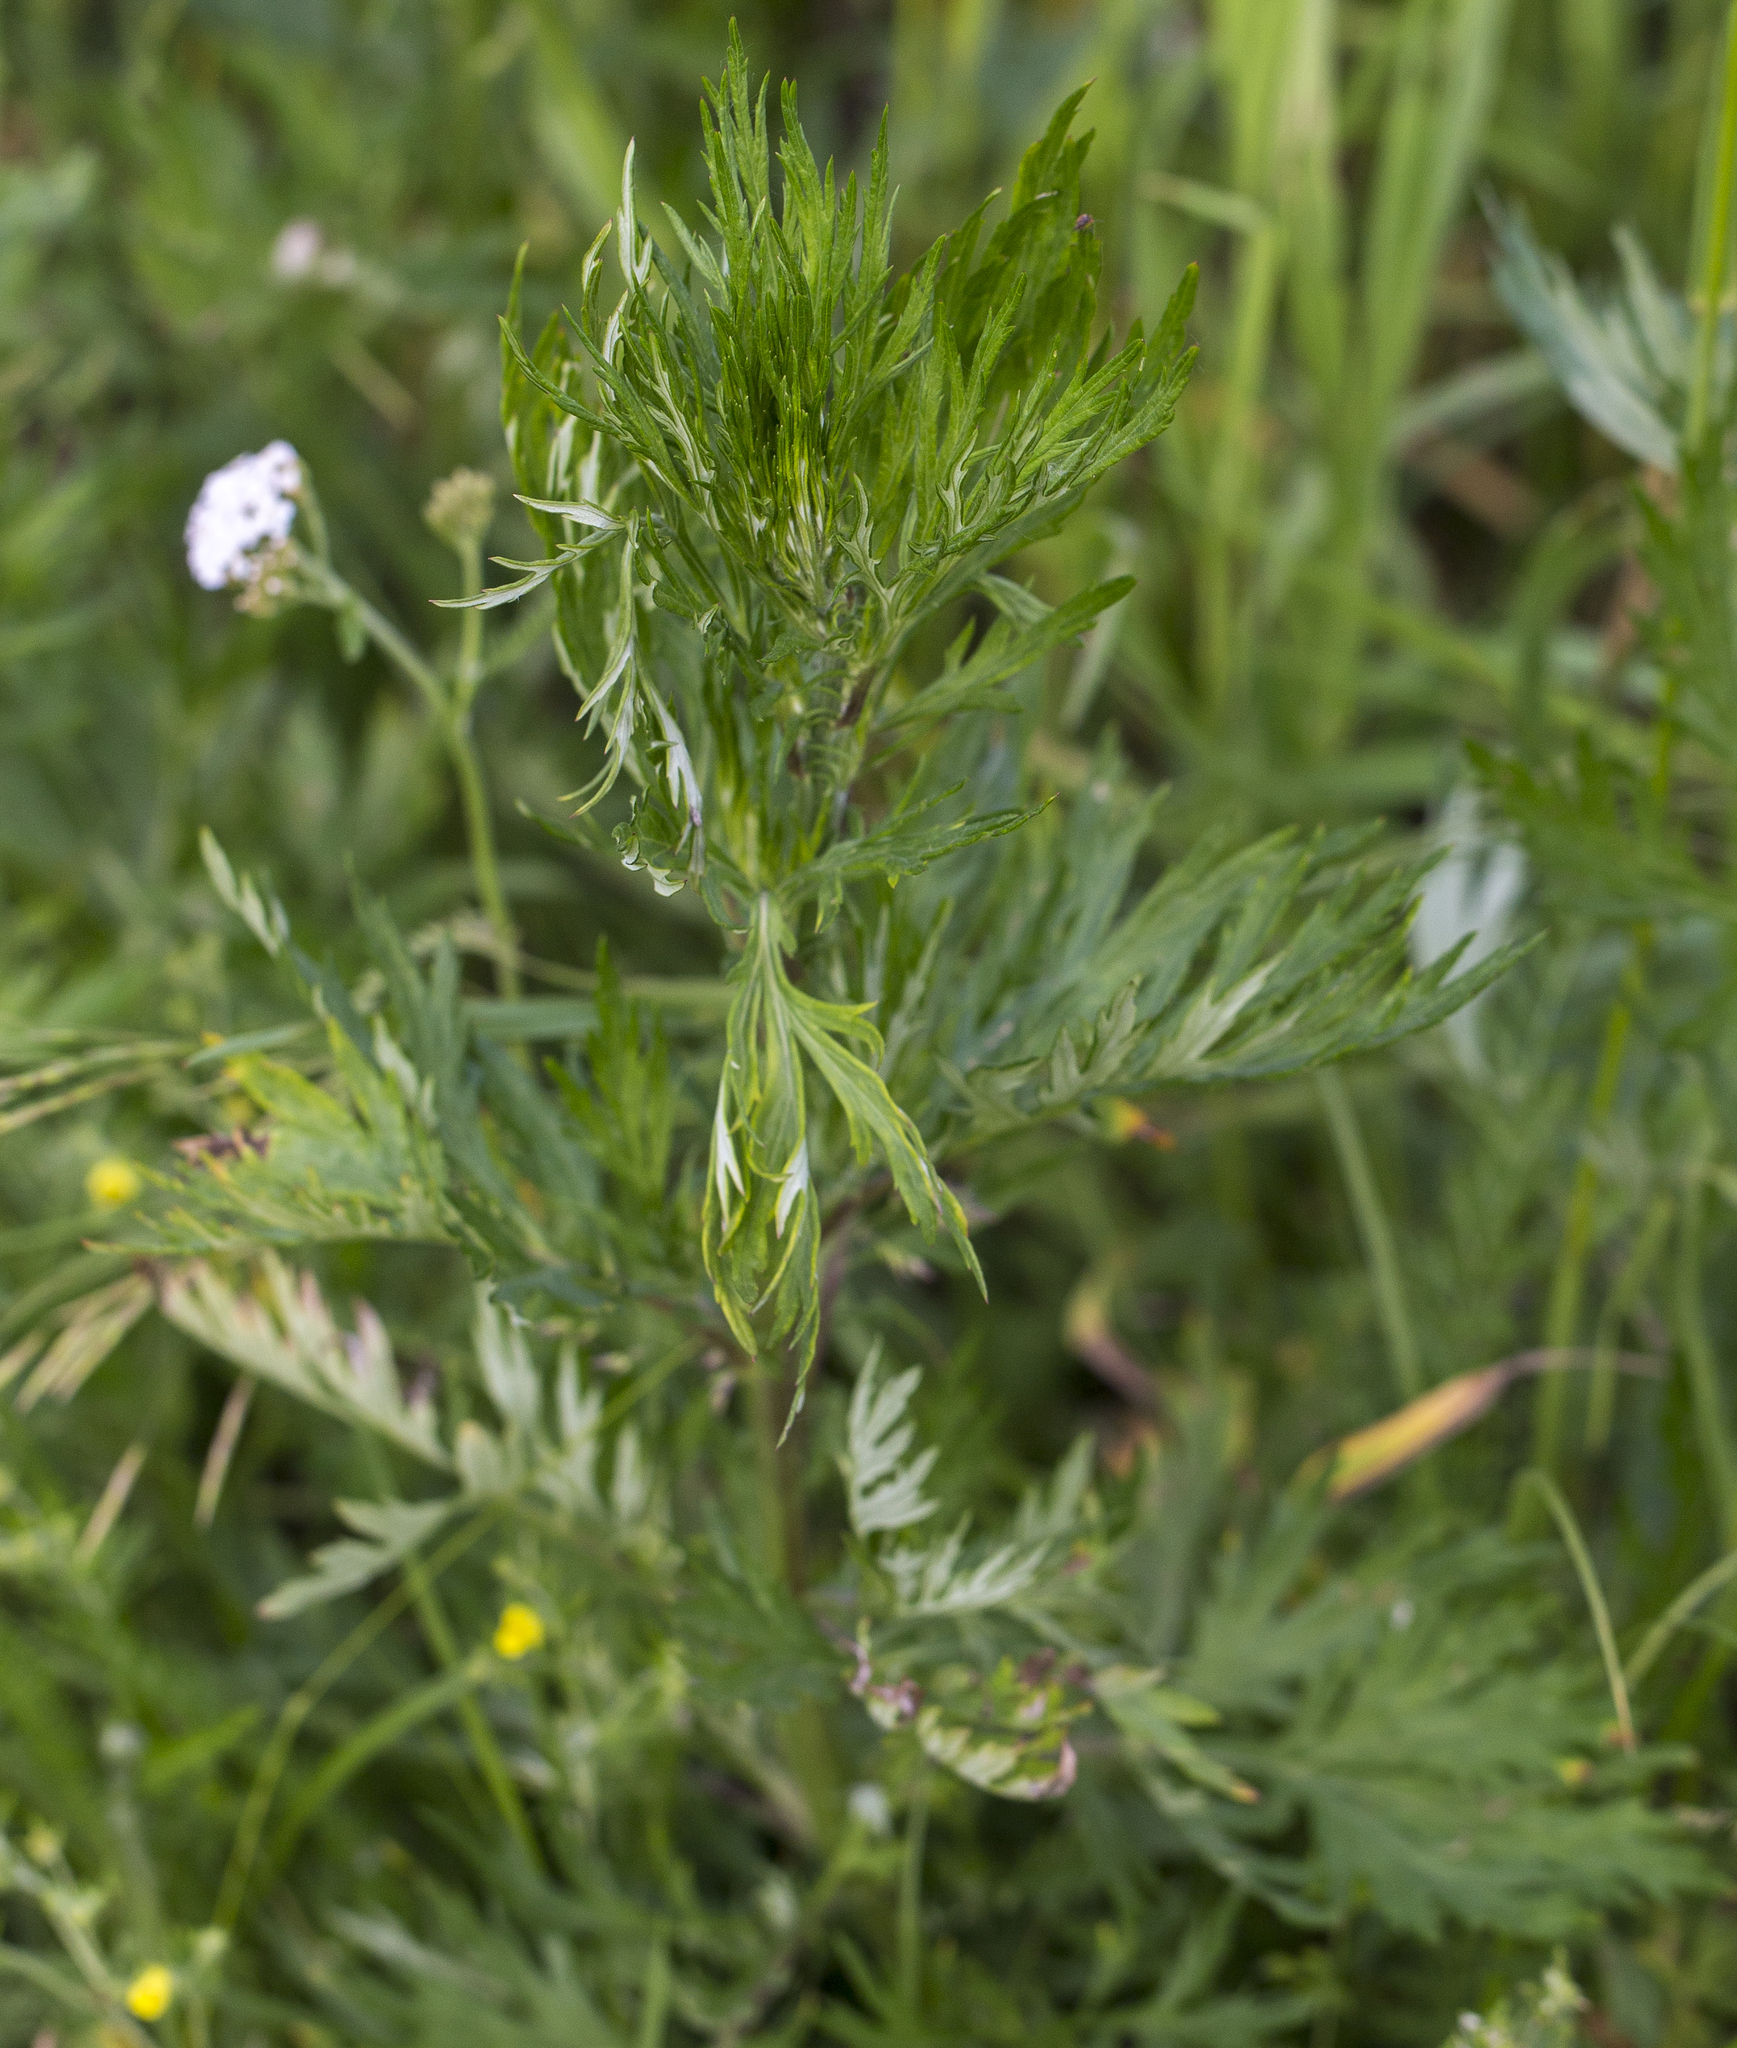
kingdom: Plantae
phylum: Tracheophyta
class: Magnoliopsida
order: Asterales
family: Asteraceae
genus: Artemisia
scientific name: Artemisia vulgaris
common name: Mugwort
